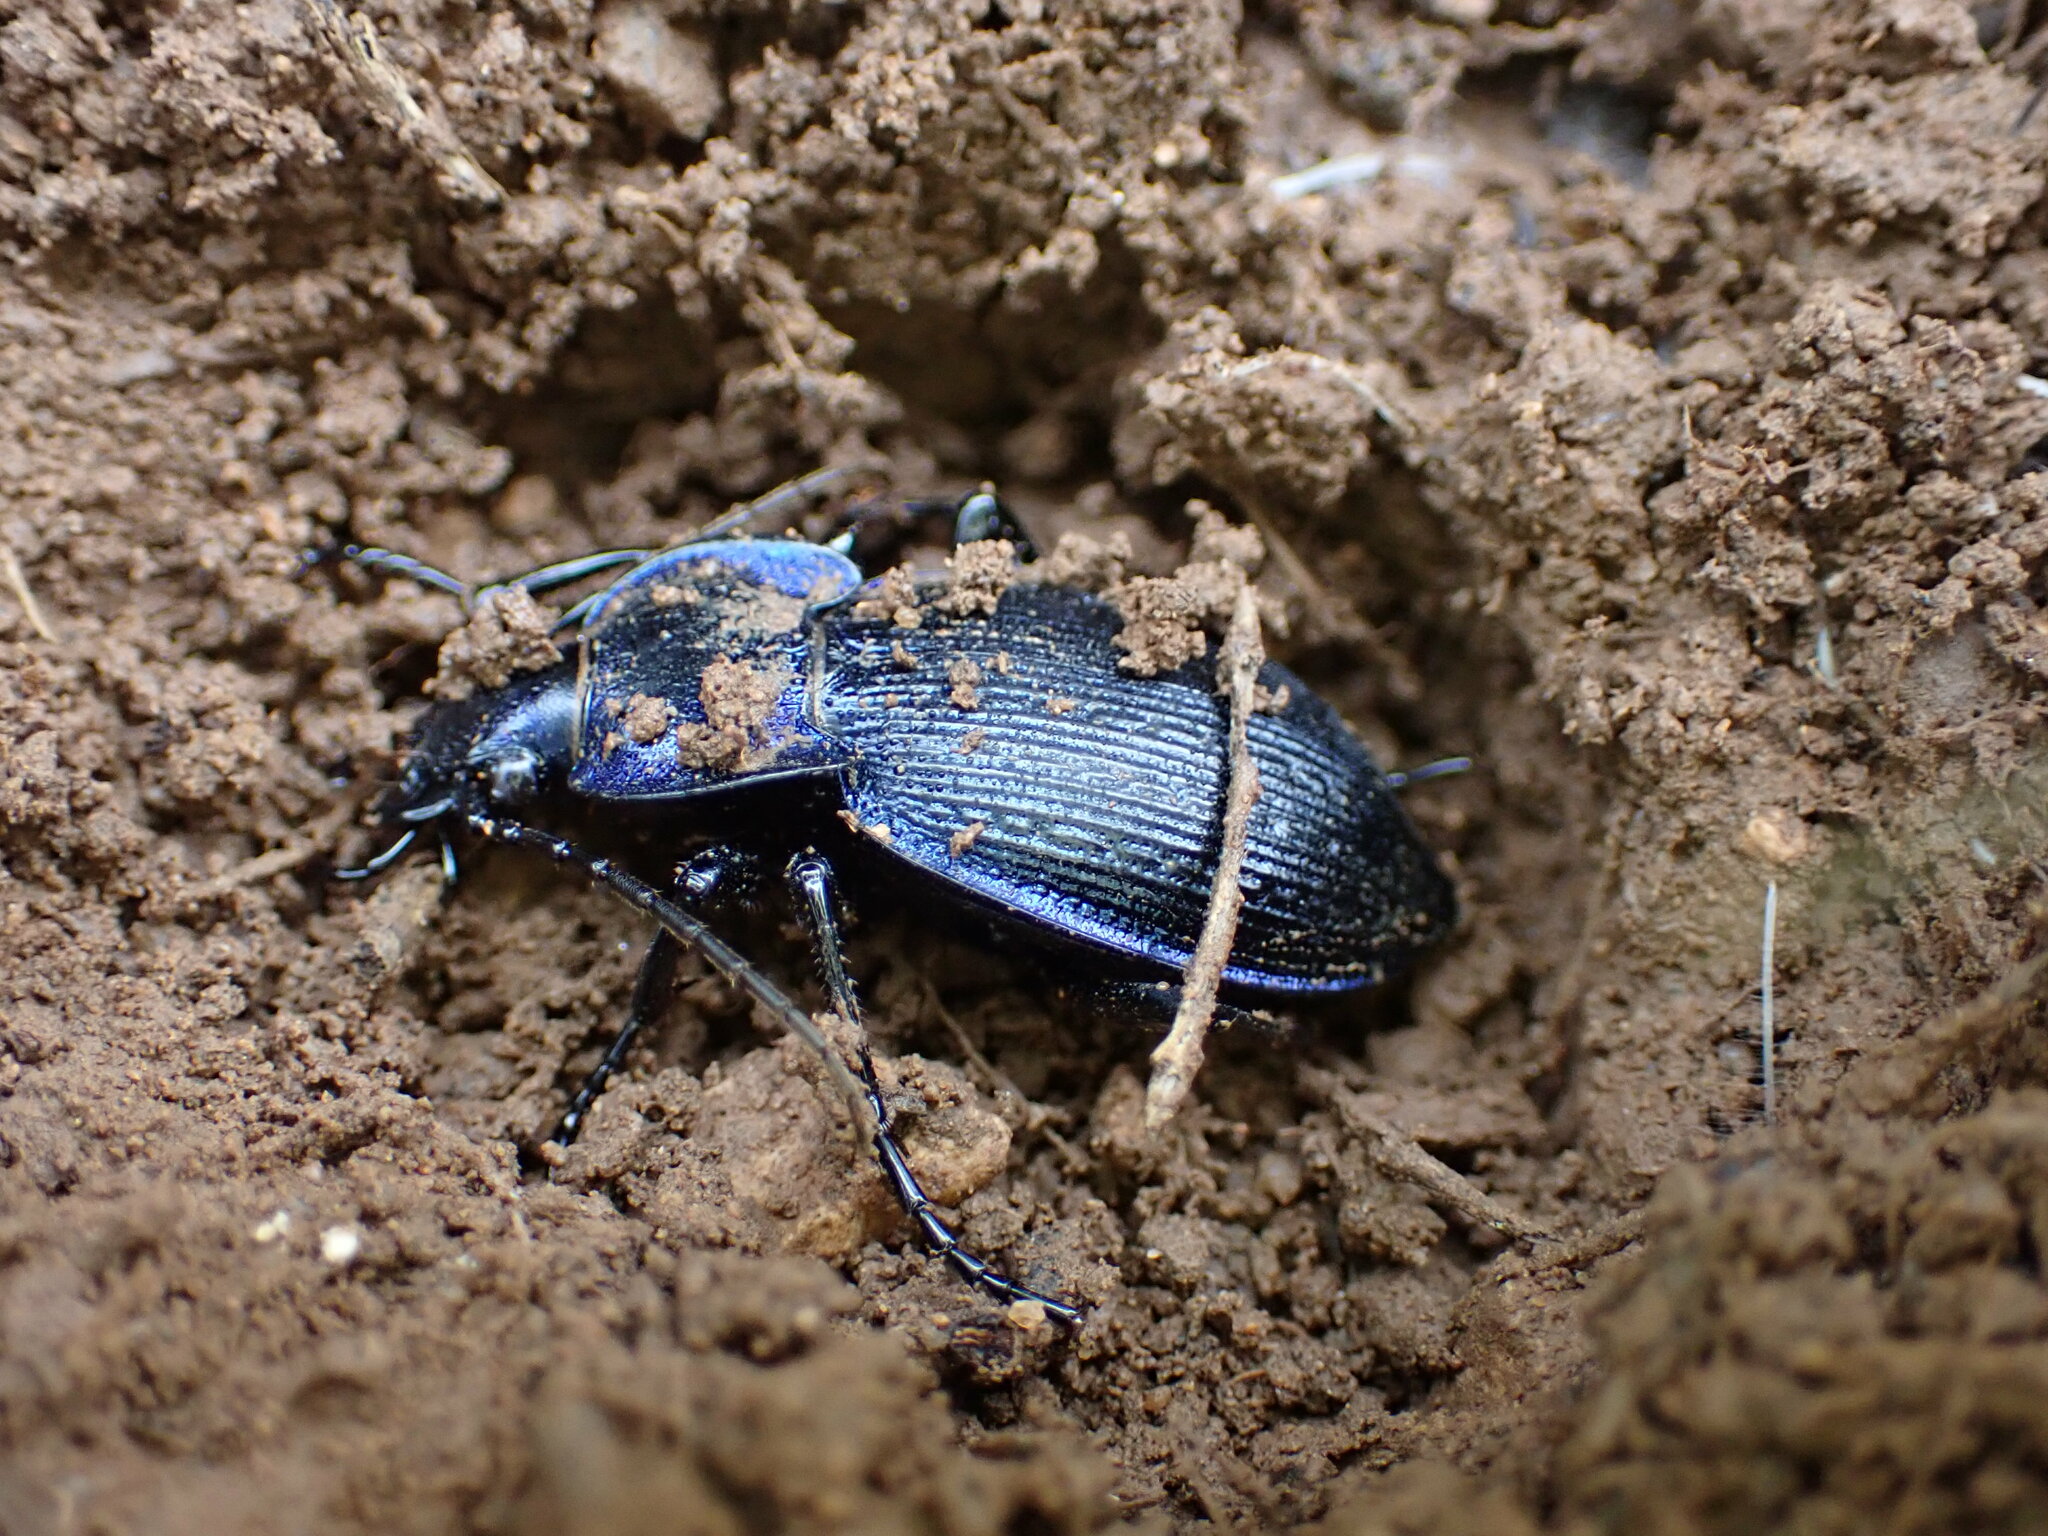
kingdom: Animalia
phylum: Arthropoda
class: Insecta
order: Coleoptera
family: Carabidae
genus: Carabus
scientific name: Carabus problematicus
